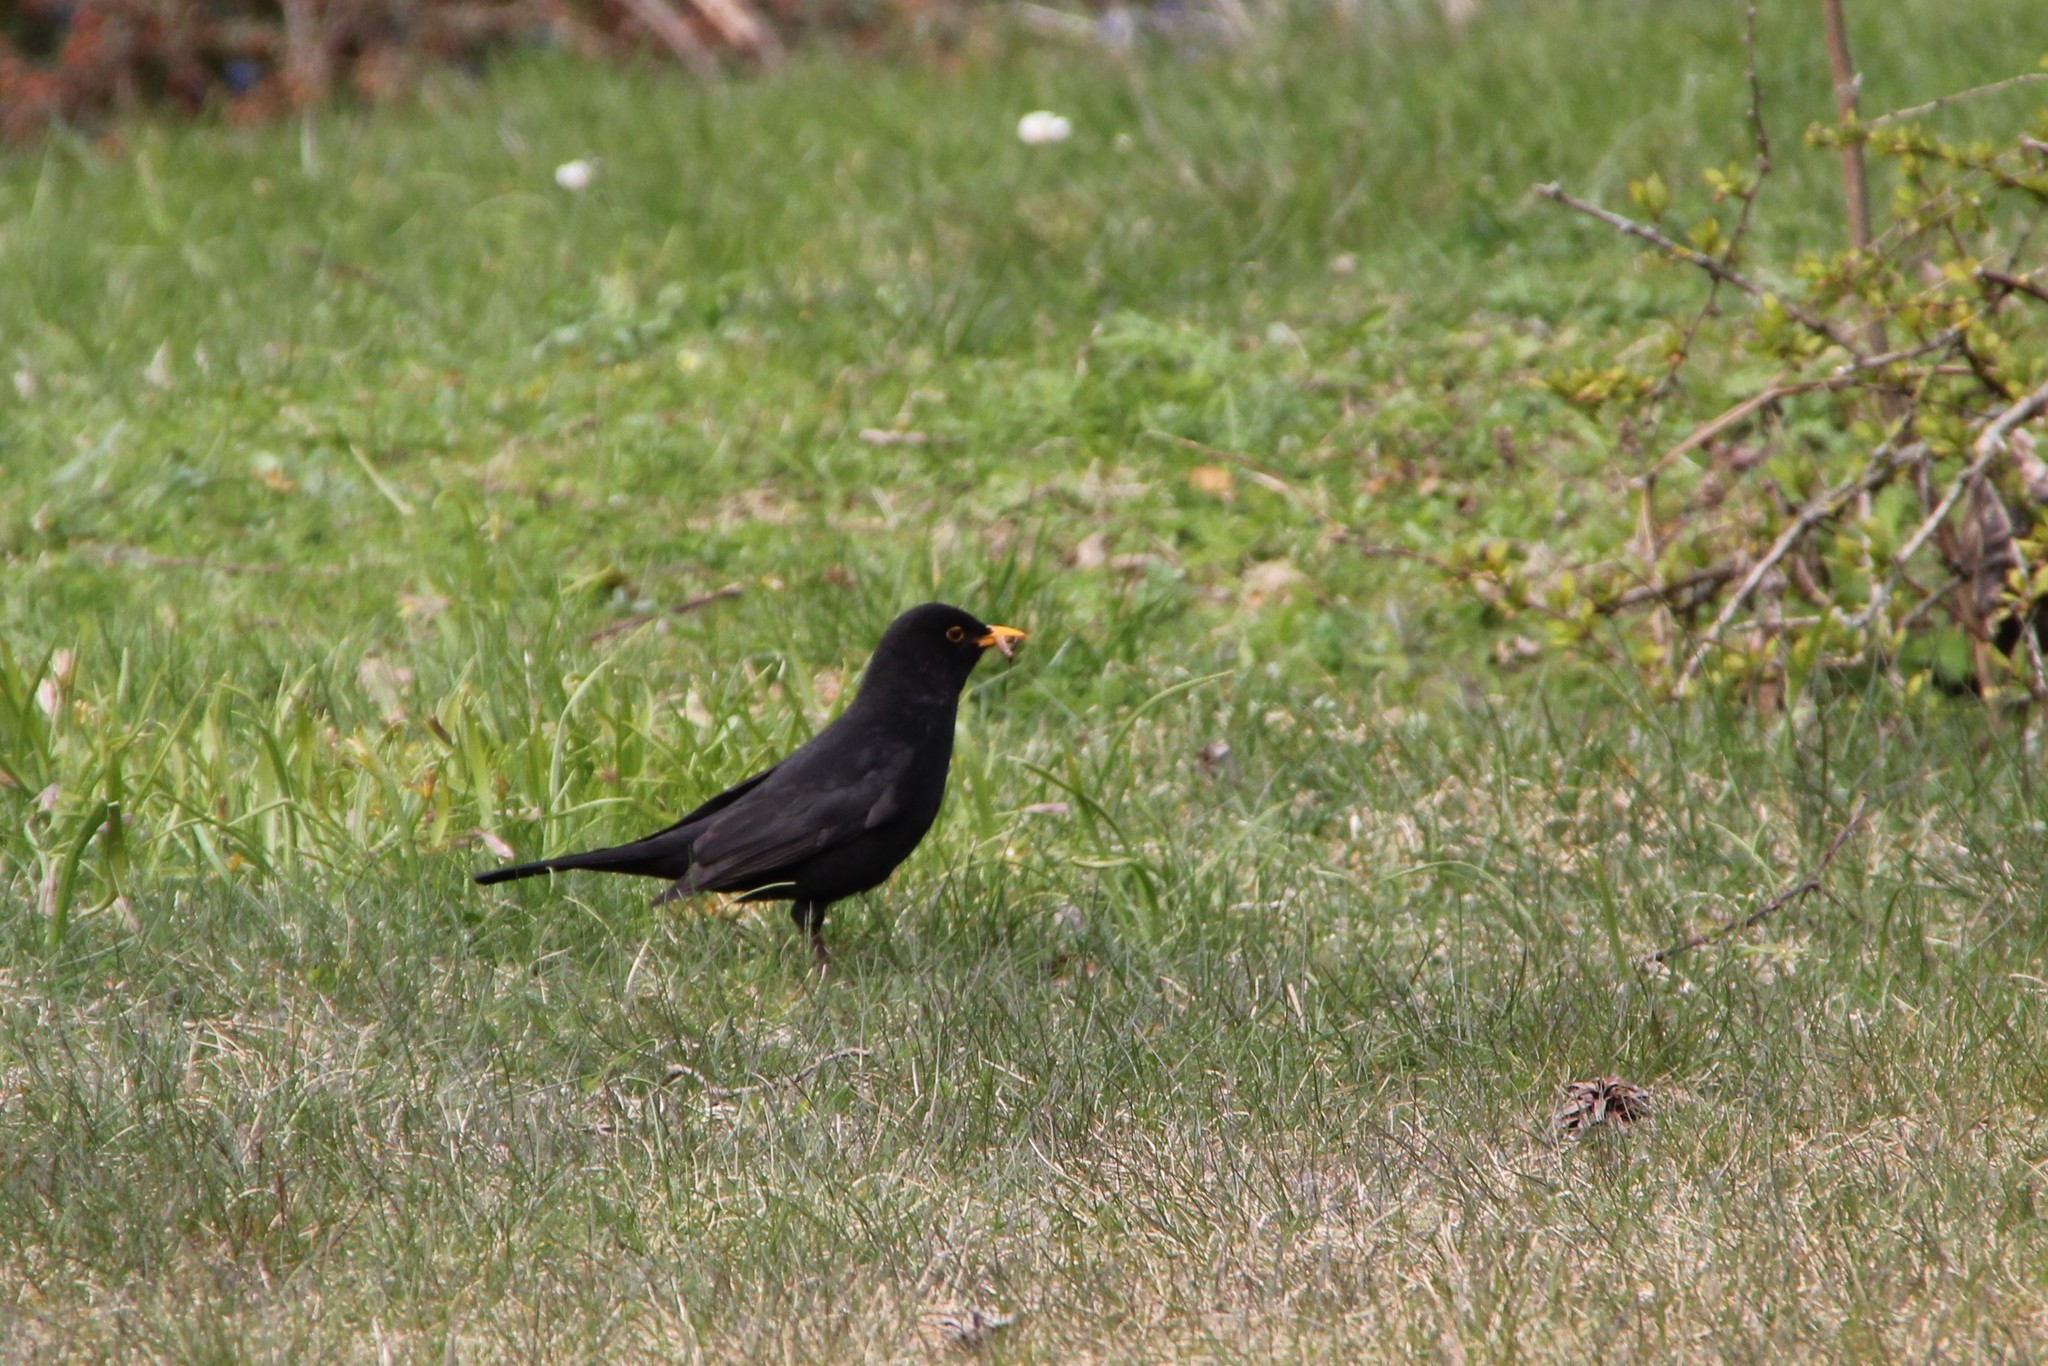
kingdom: Animalia
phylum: Chordata
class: Aves
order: Passeriformes
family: Turdidae
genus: Turdus
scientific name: Turdus merula
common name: Common blackbird
